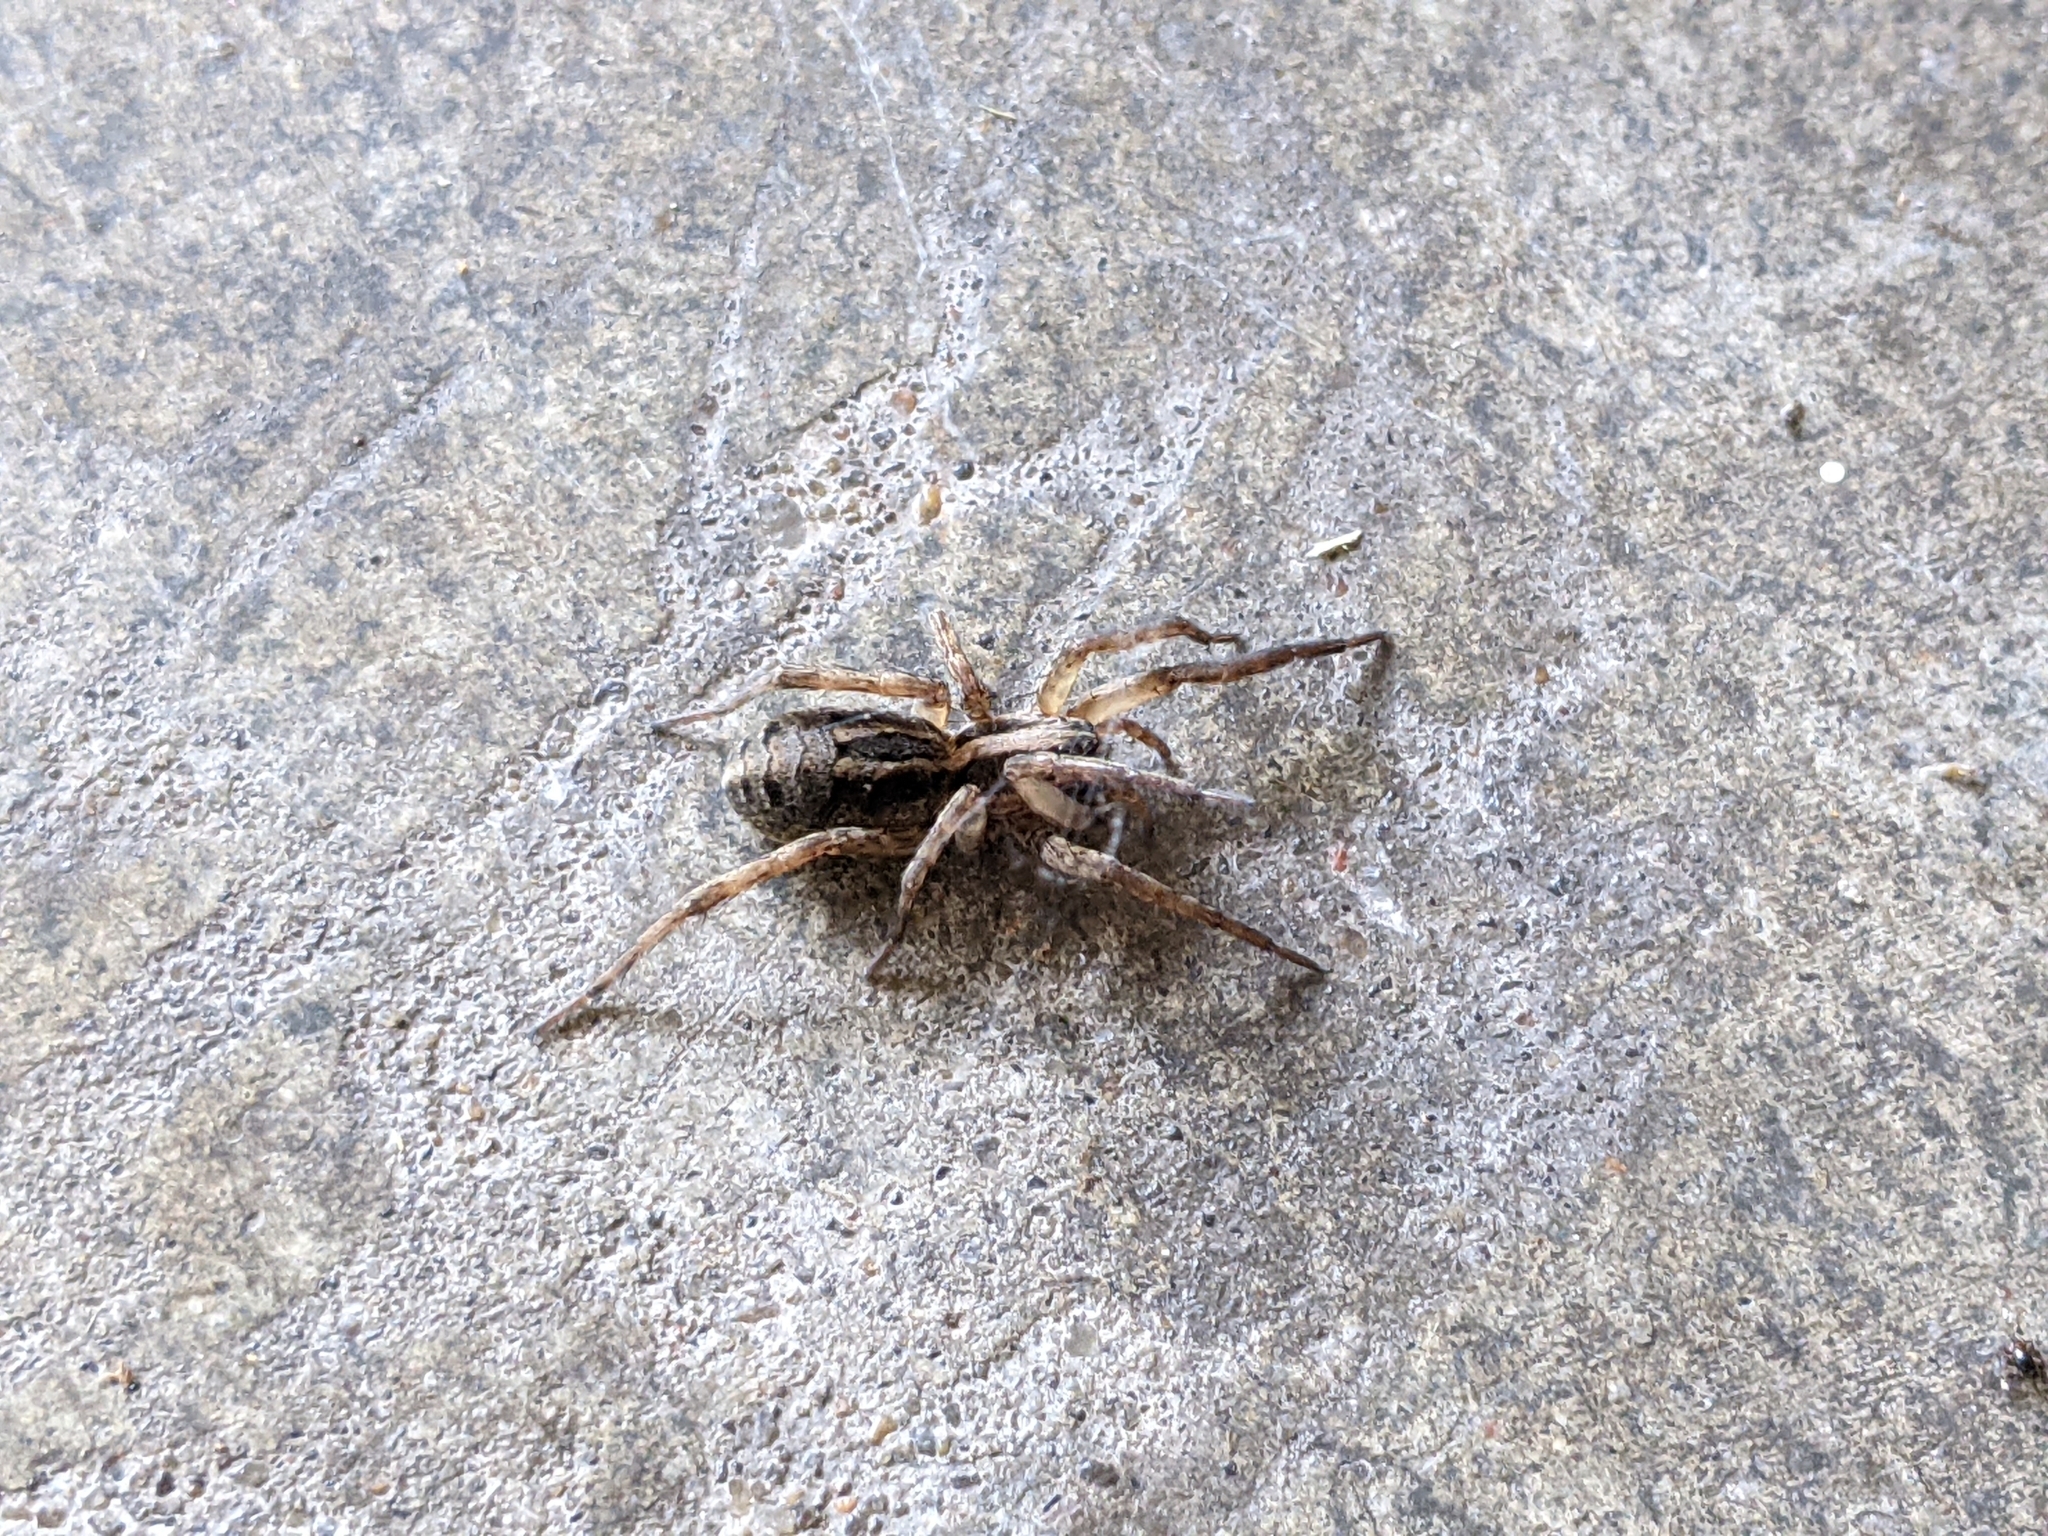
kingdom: Animalia
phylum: Arthropoda
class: Arachnida
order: Araneae
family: Lycosidae
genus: Schizocosa
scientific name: Schizocosa avida
